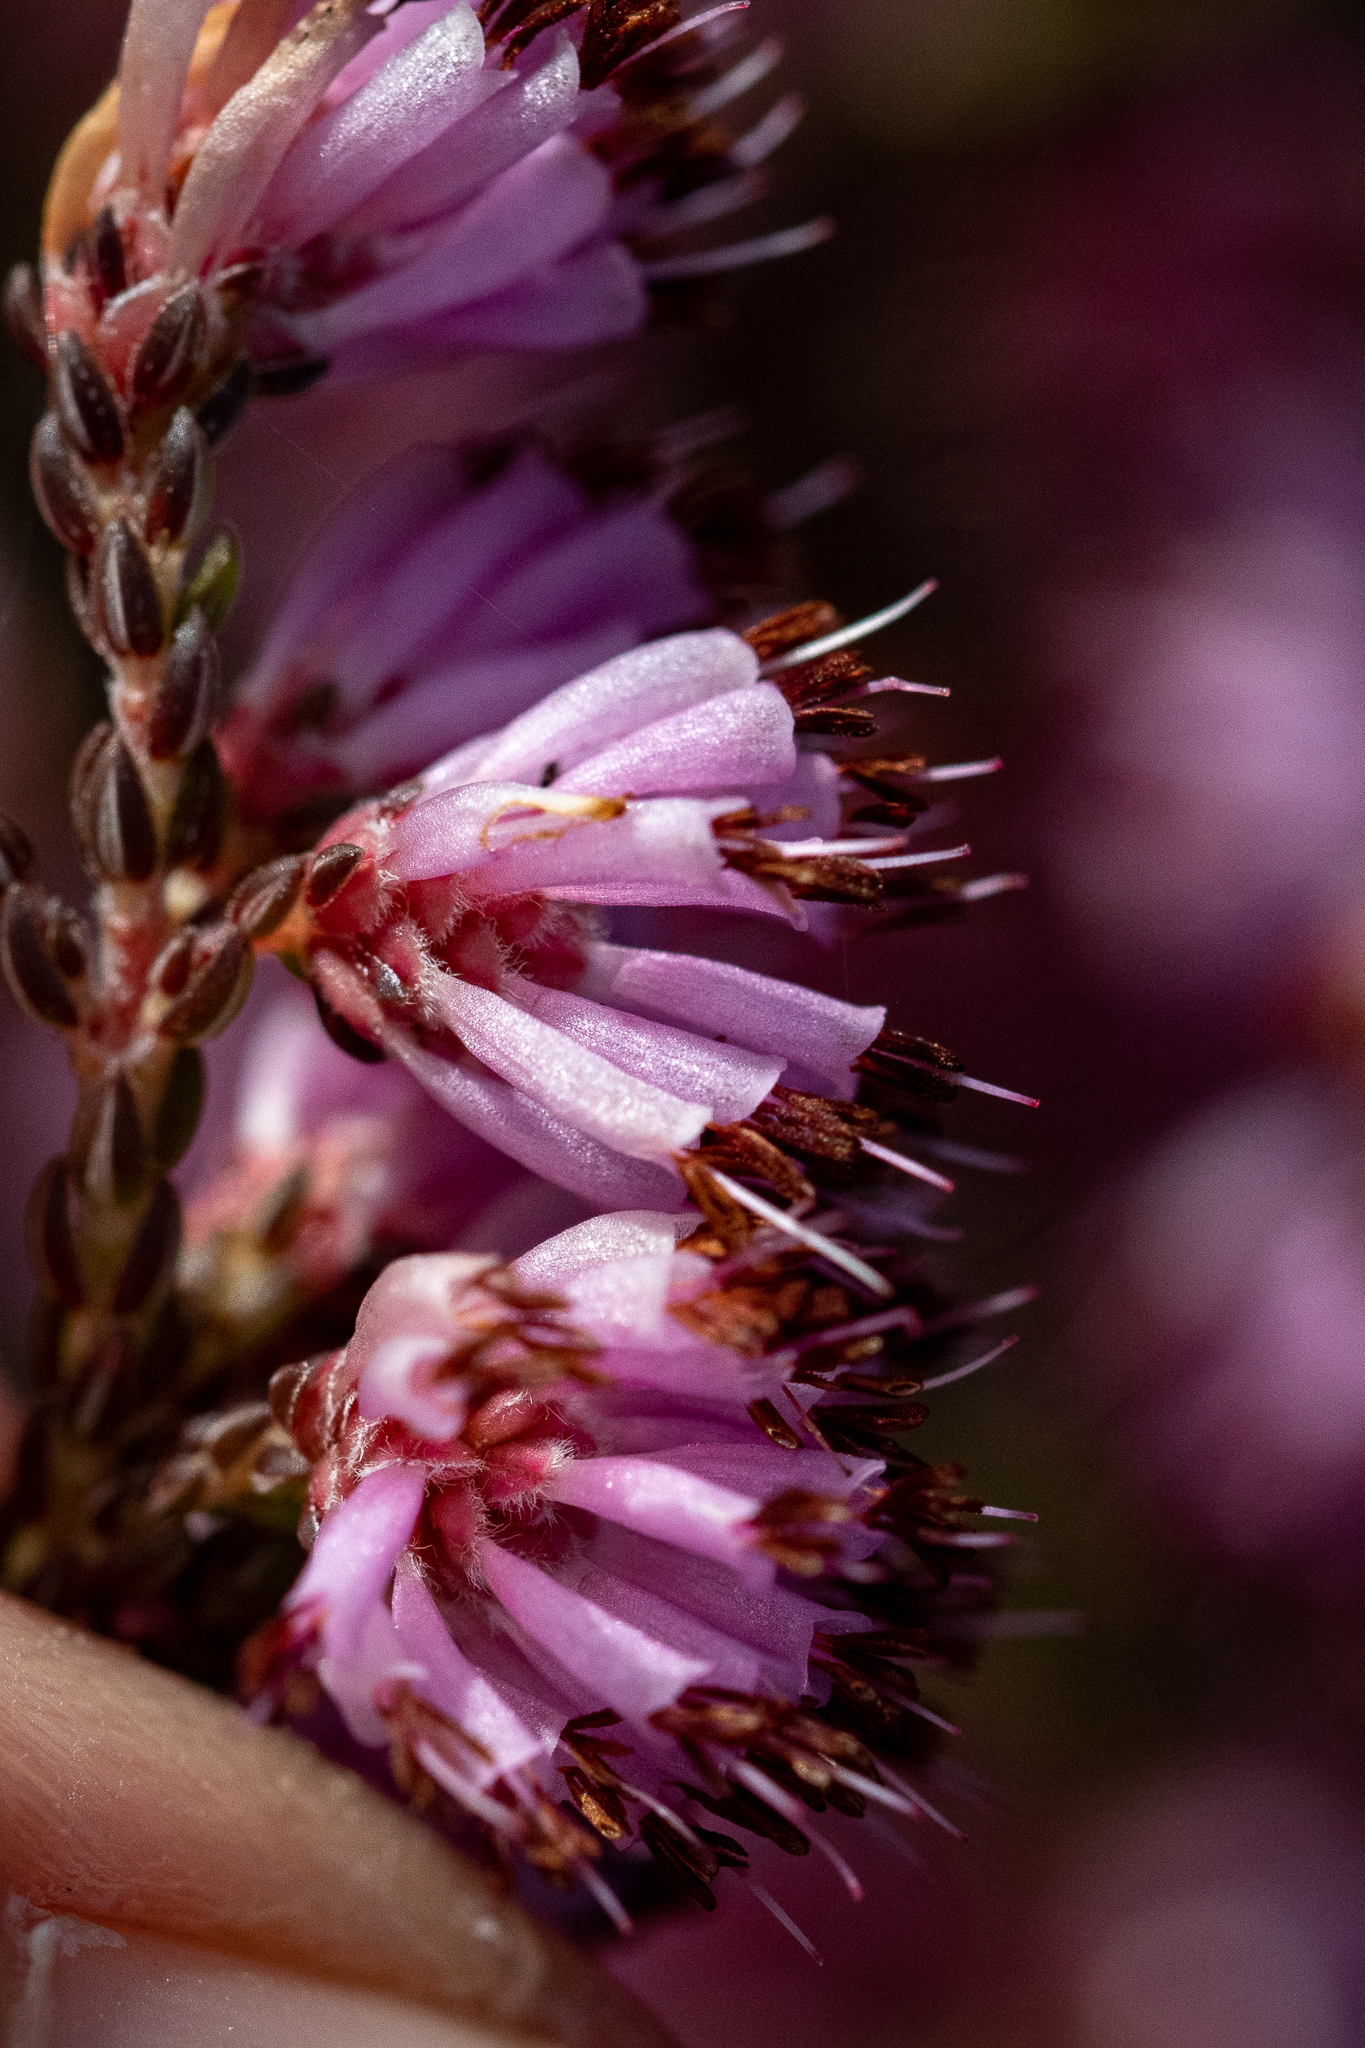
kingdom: Plantae
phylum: Tracheophyta
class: Magnoliopsida
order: Ericales
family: Ericaceae
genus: Erica
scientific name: Erica labialis
